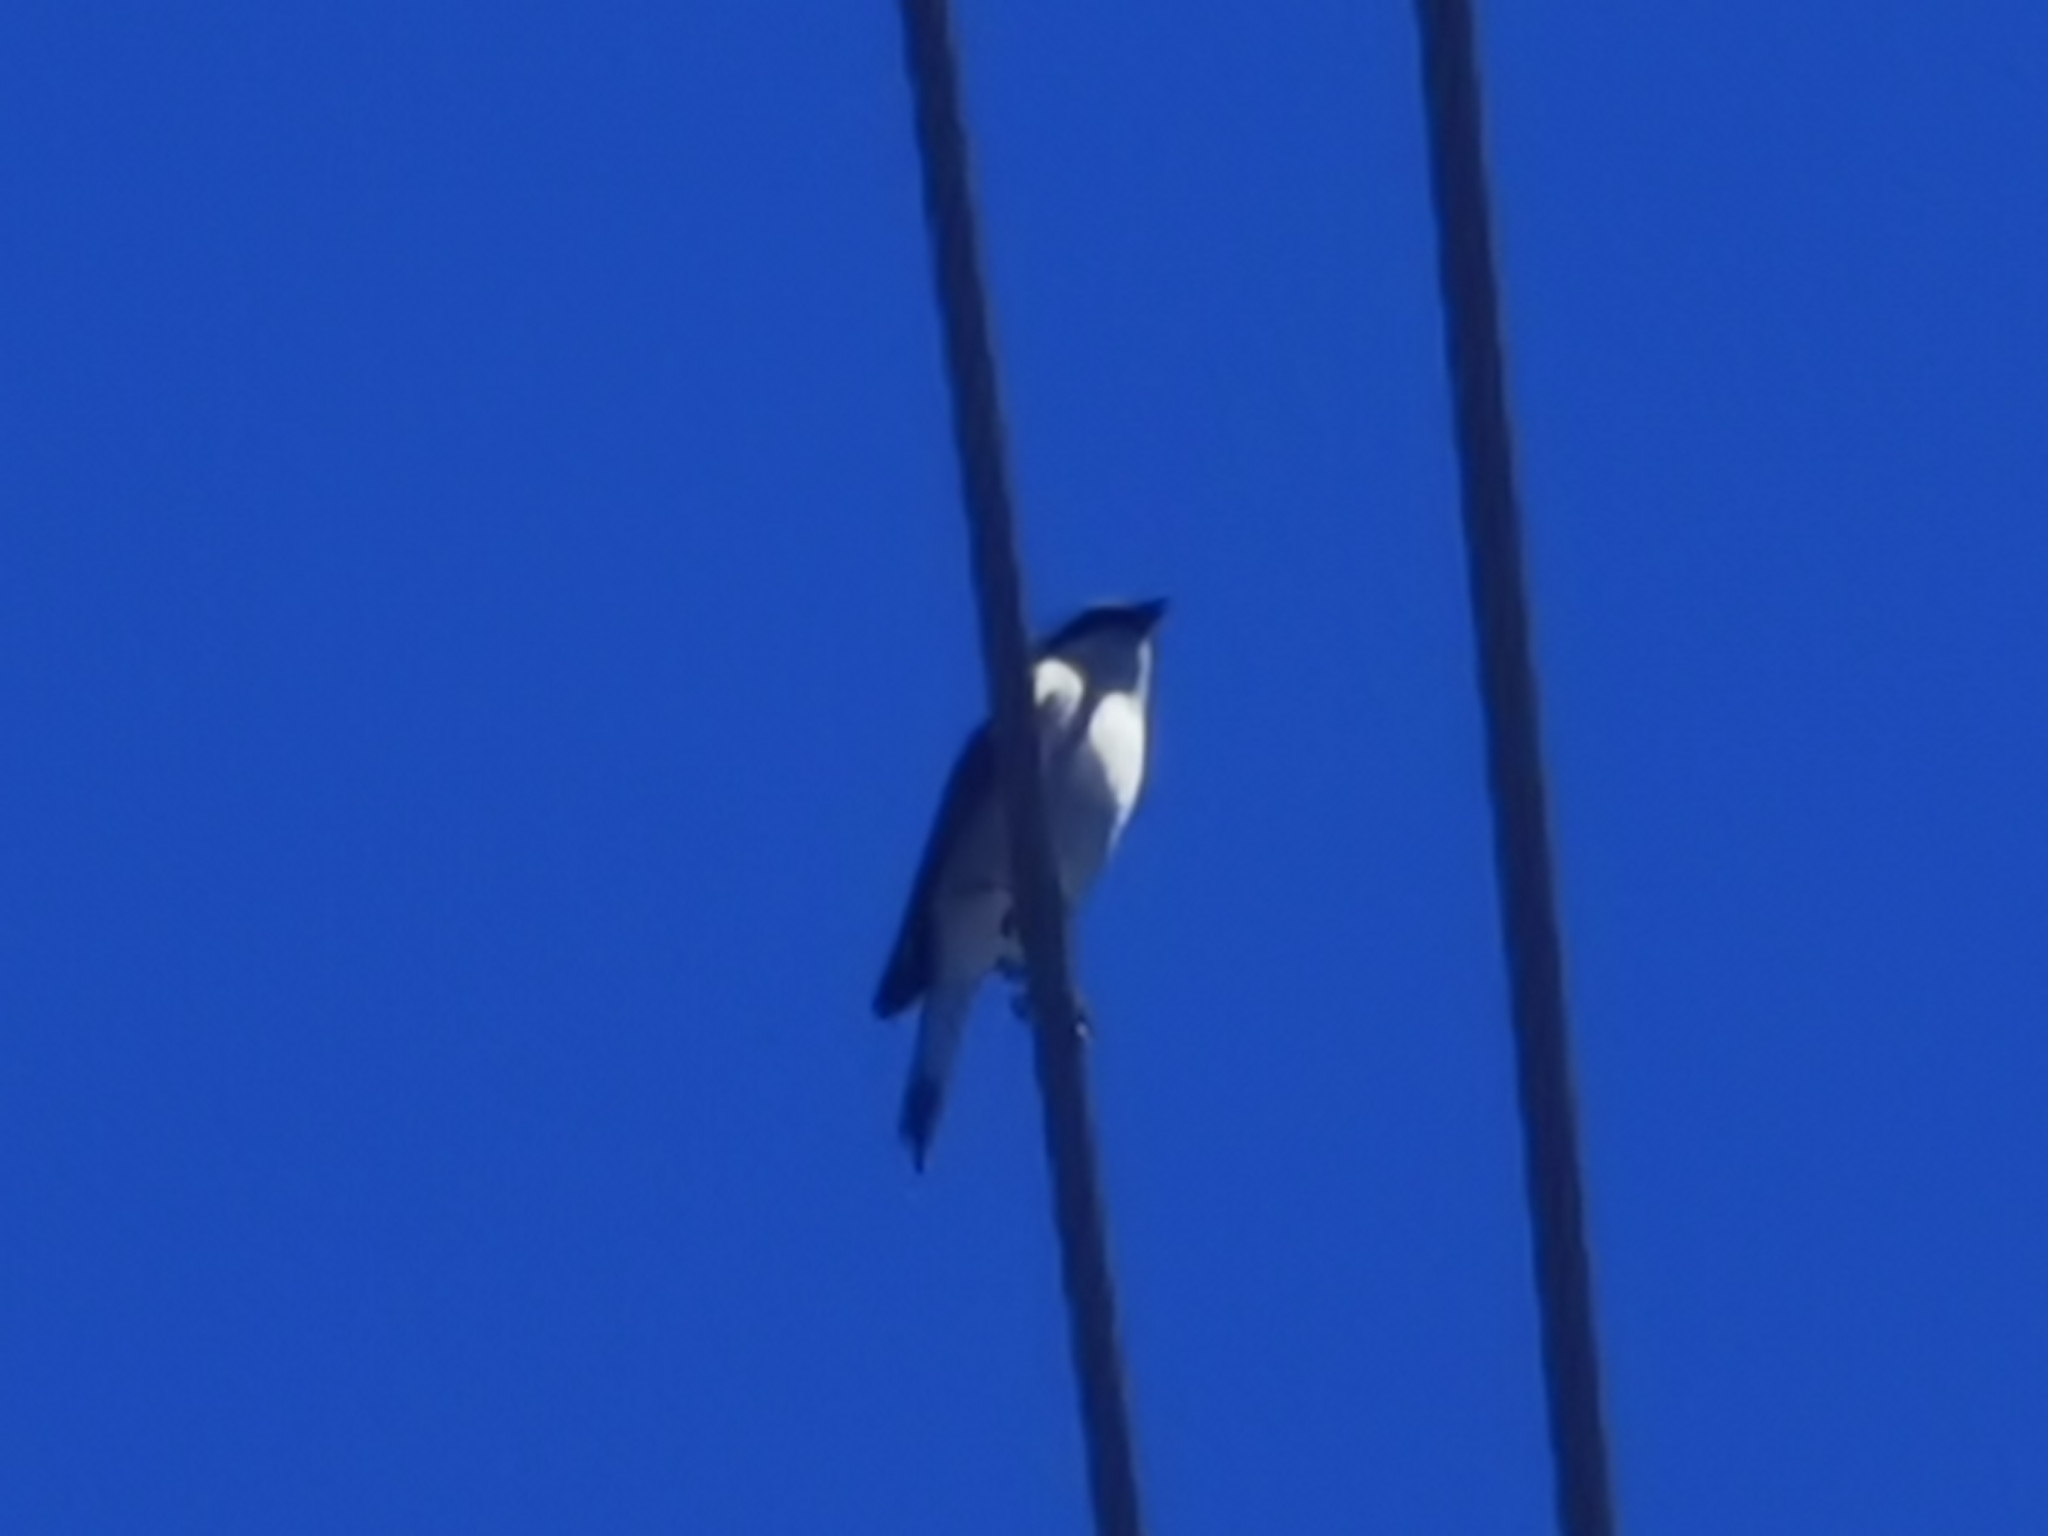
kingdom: Animalia
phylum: Chordata
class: Aves
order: Passeriformes
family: Laniidae
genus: Lanius
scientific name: Lanius collurio
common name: Red-backed shrike
